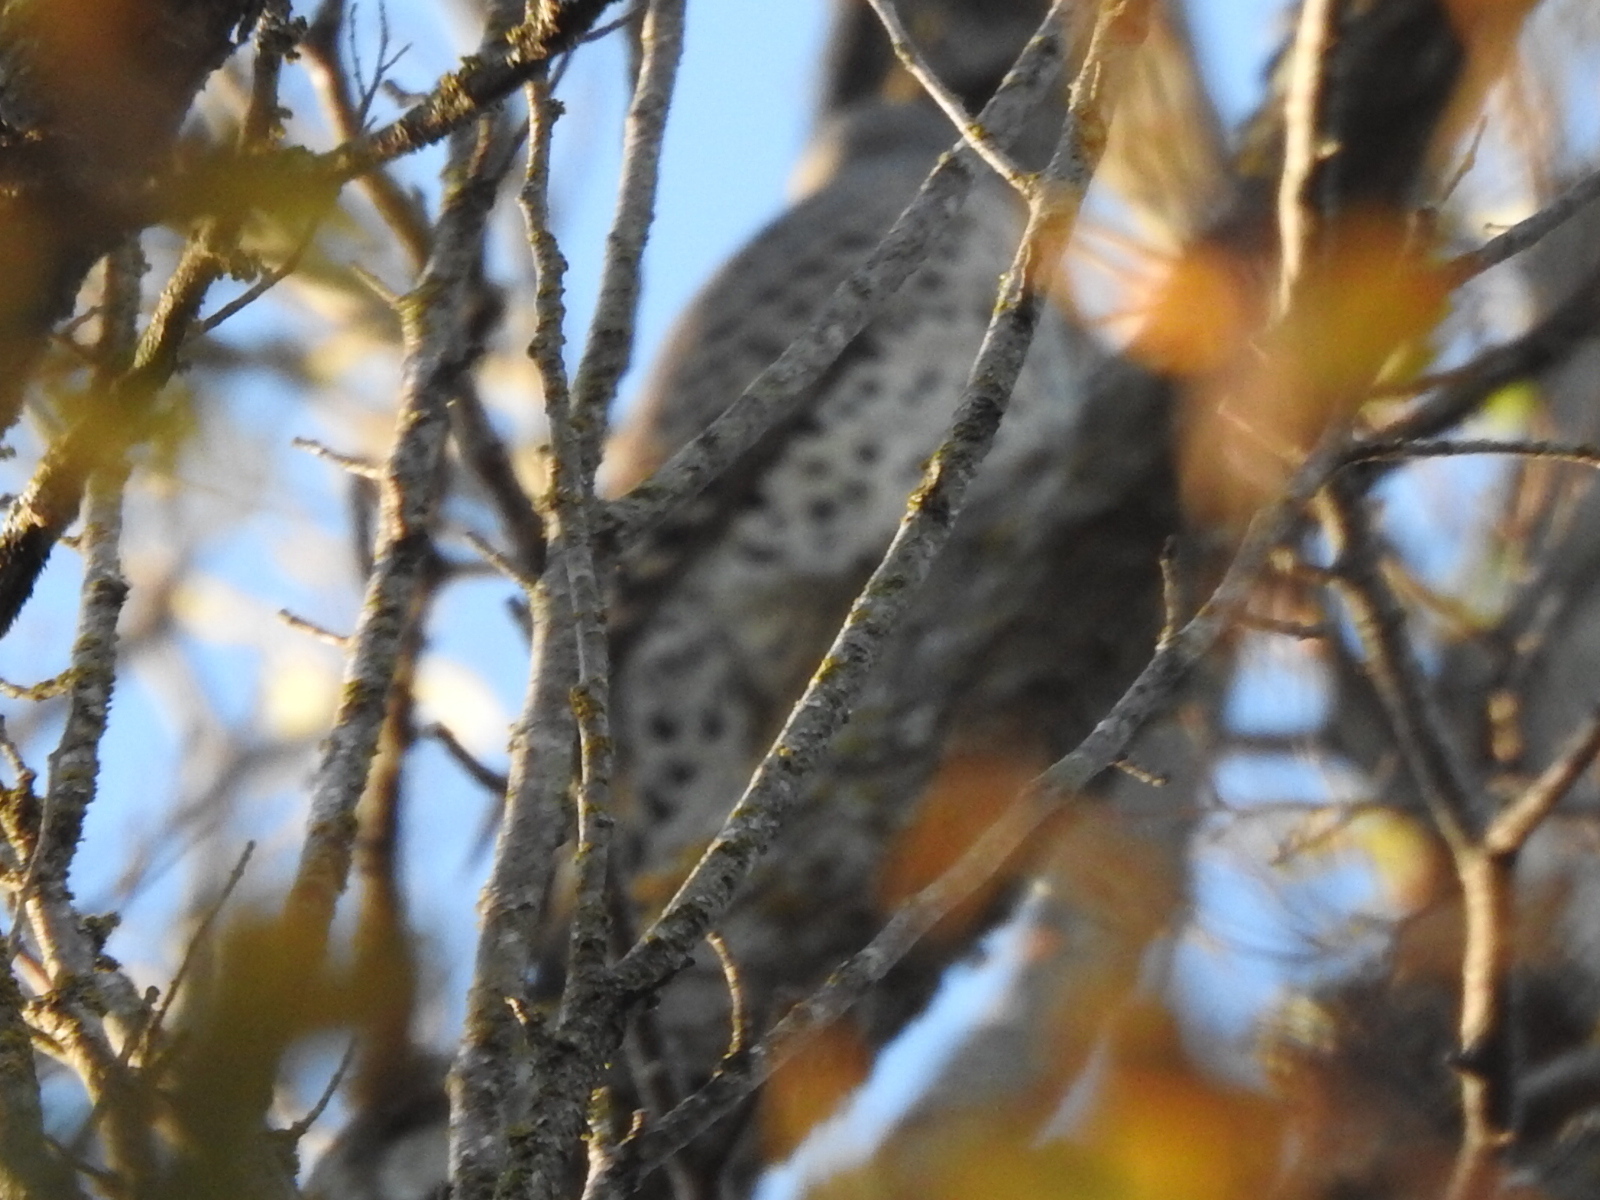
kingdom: Animalia
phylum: Chordata
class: Aves
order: Piciformes
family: Picidae
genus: Colaptes
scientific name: Colaptes auratus
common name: Northern flicker
